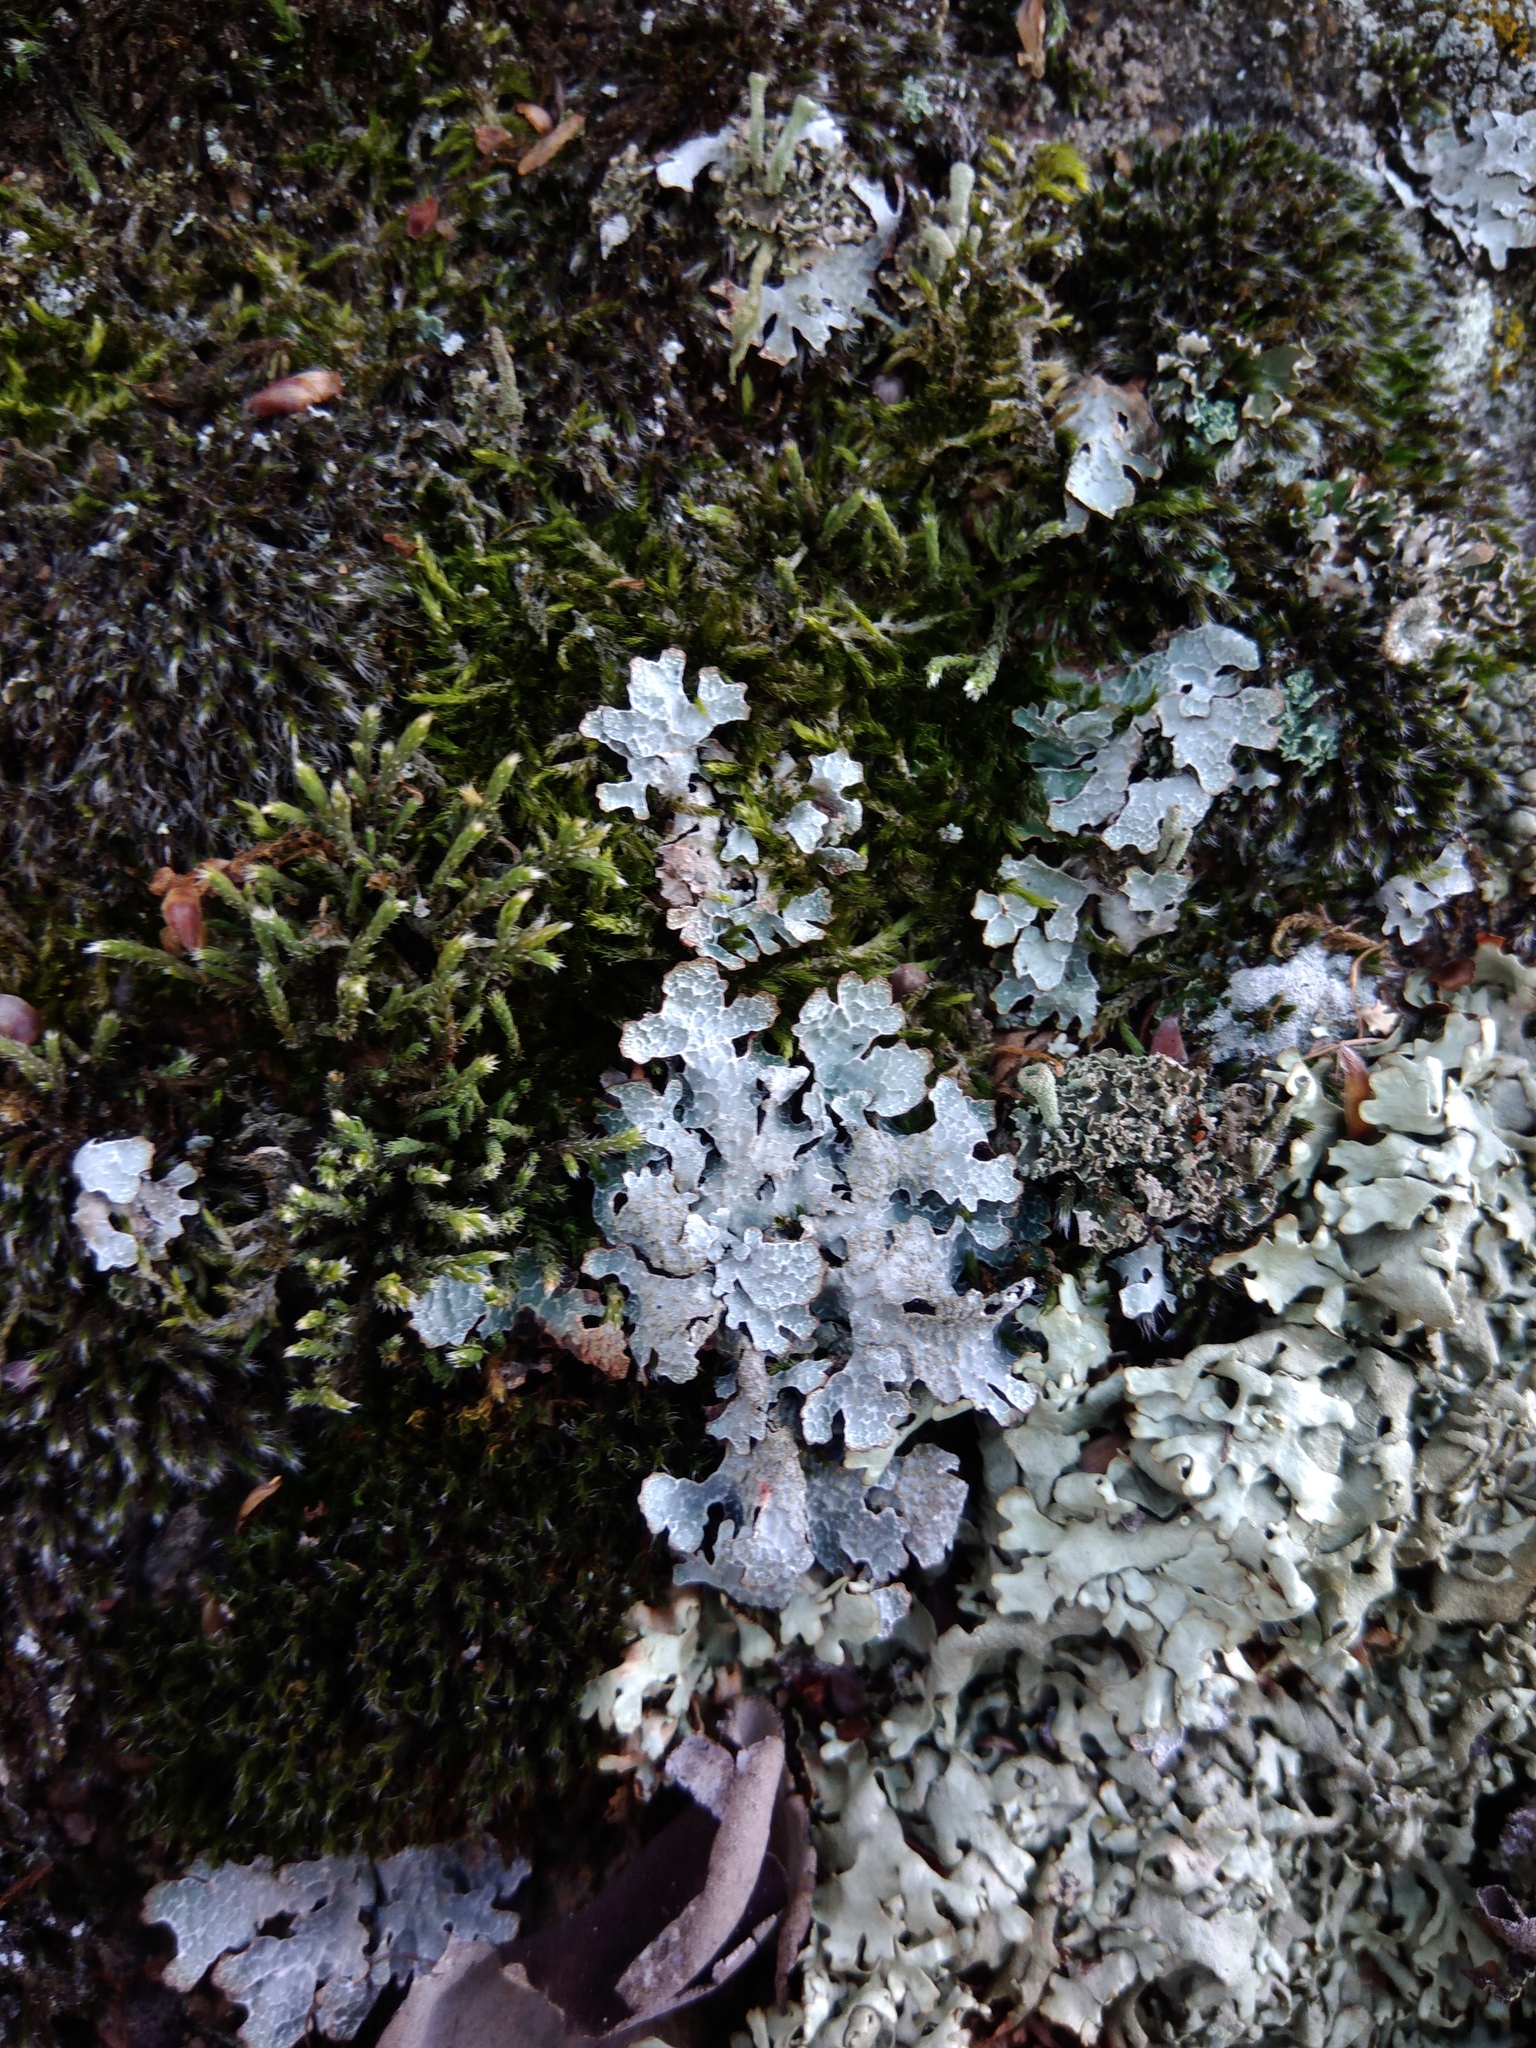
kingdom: Fungi
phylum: Ascomycota
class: Lecanoromycetes
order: Lecanorales
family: Parmeliaceae
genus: Parmelia
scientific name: Parmelia sulcata
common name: Netted shield lichen
